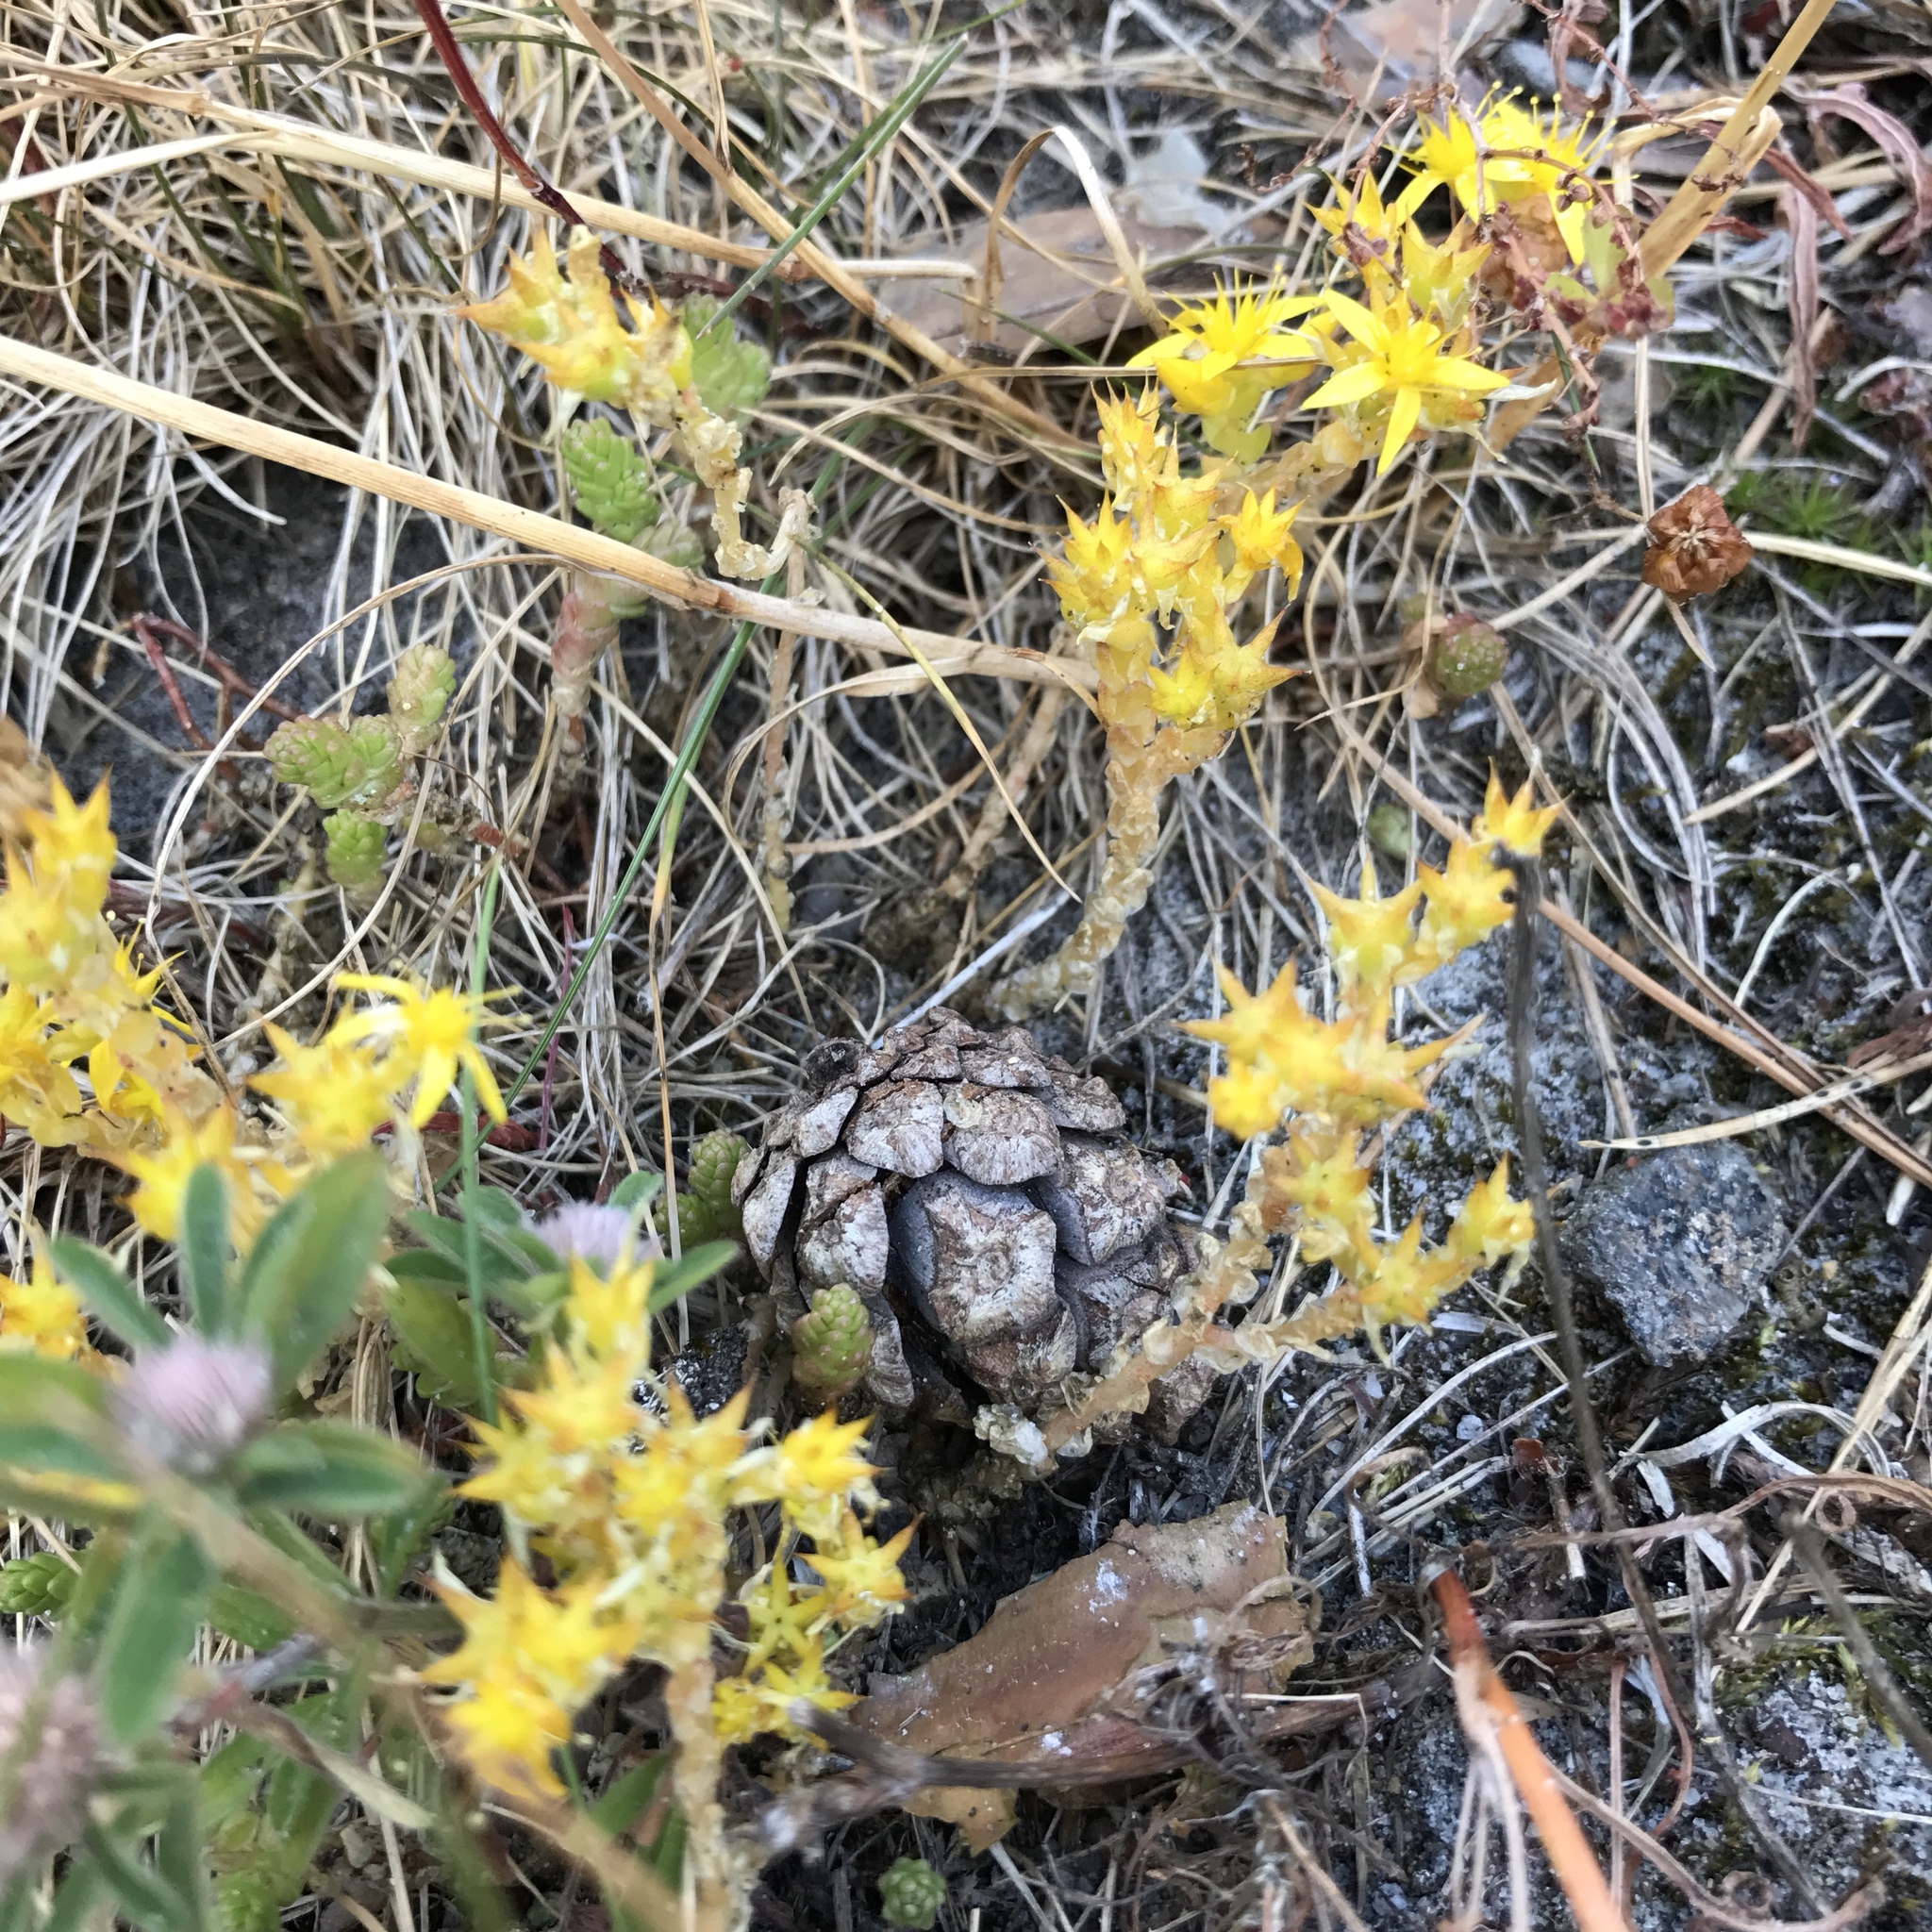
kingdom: Plantae
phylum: Tracheophyta
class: Magnoliopsida
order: Saxifragales
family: Crassulaceae
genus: Sedum
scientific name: Sedum acre
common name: Biting stonecrop
